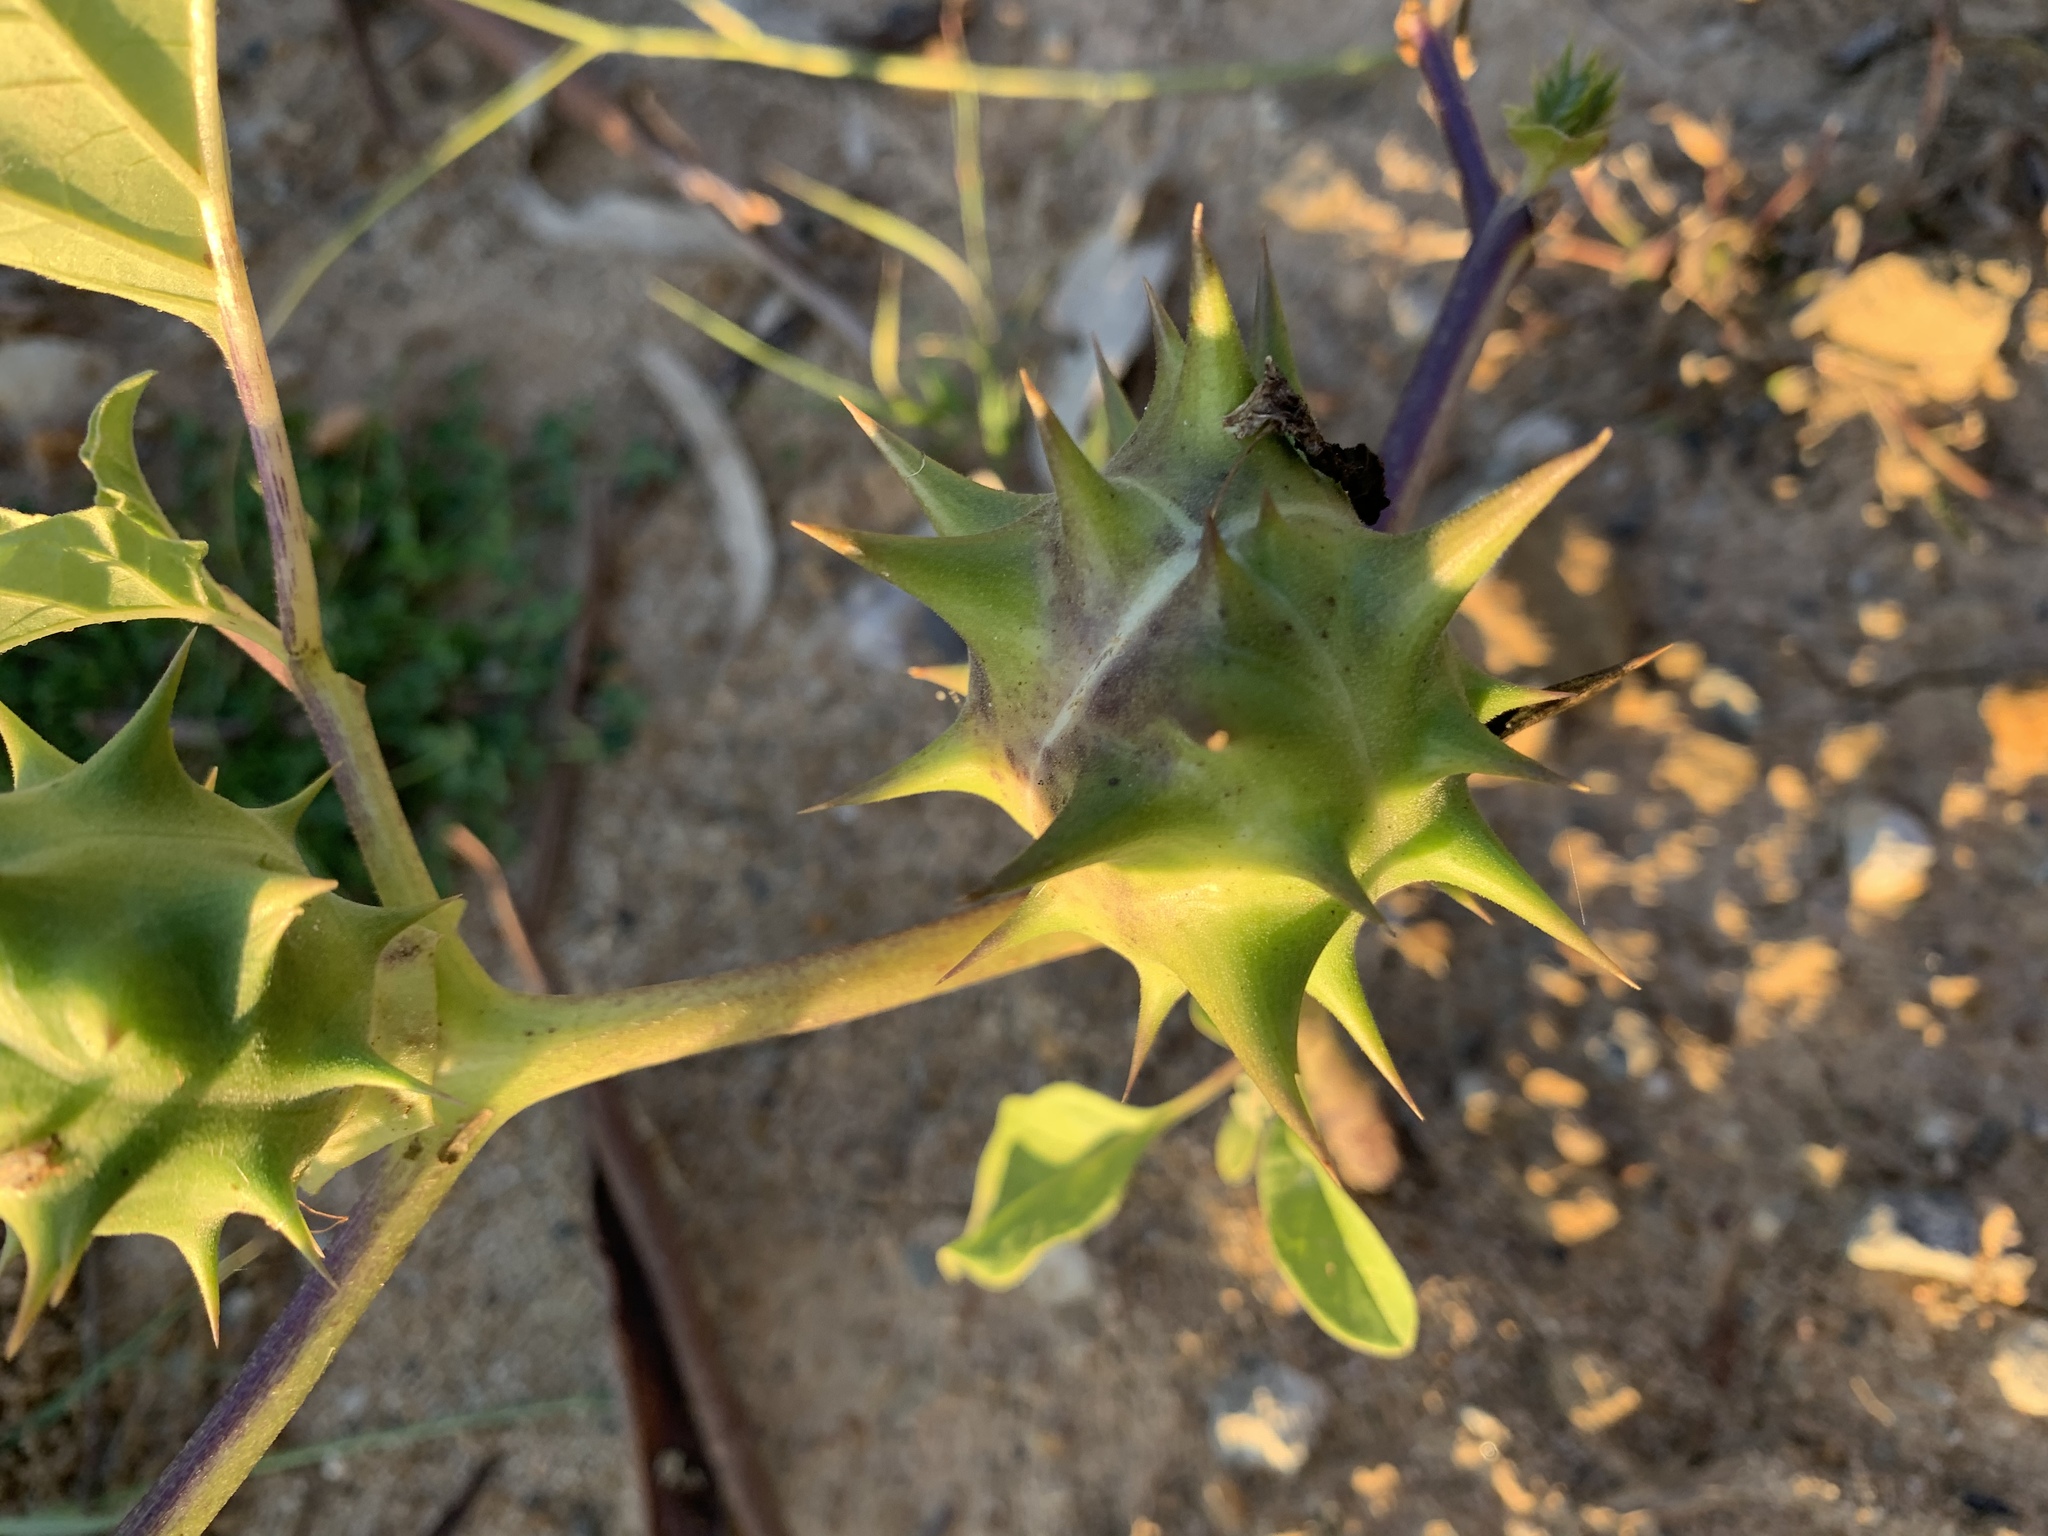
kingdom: Plantae
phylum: Tracheophyta
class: Magnoliopsida
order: Solanales
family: Solanaceae
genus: Datura
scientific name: Datura ferox
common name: Angel's-trumpets
